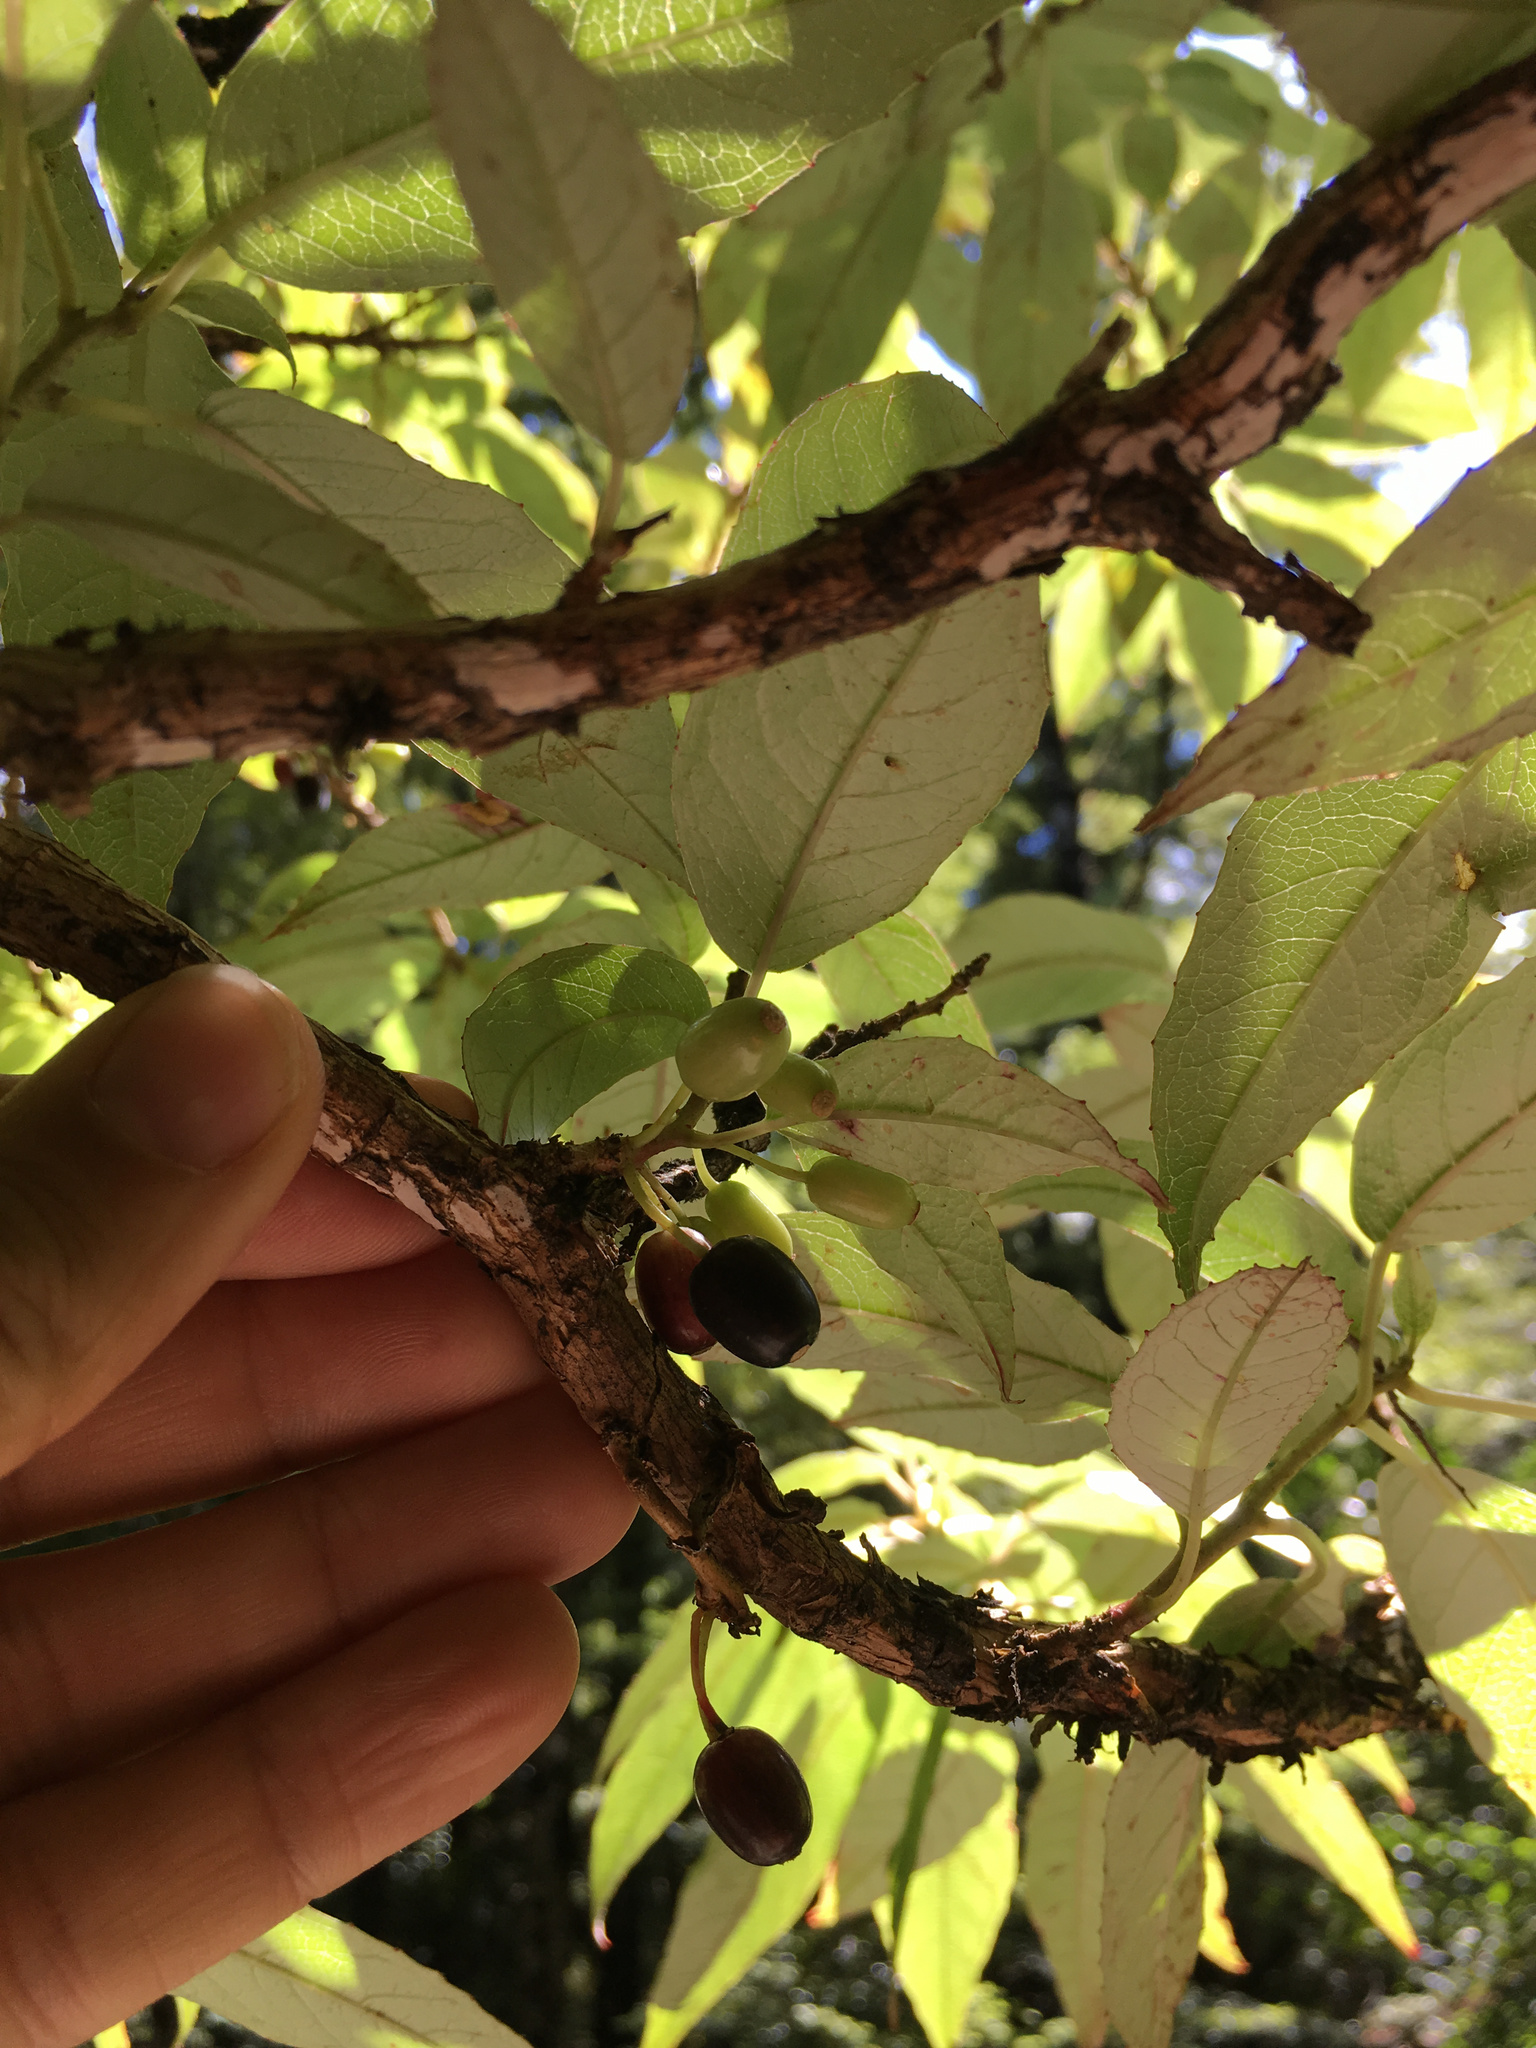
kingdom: Plantae
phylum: Tracheophyta
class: Magnoliopsida
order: Myrtales
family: Onagraceae
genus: Fuchsia
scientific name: Fuchsia excorticata
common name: Tree fuchsia
